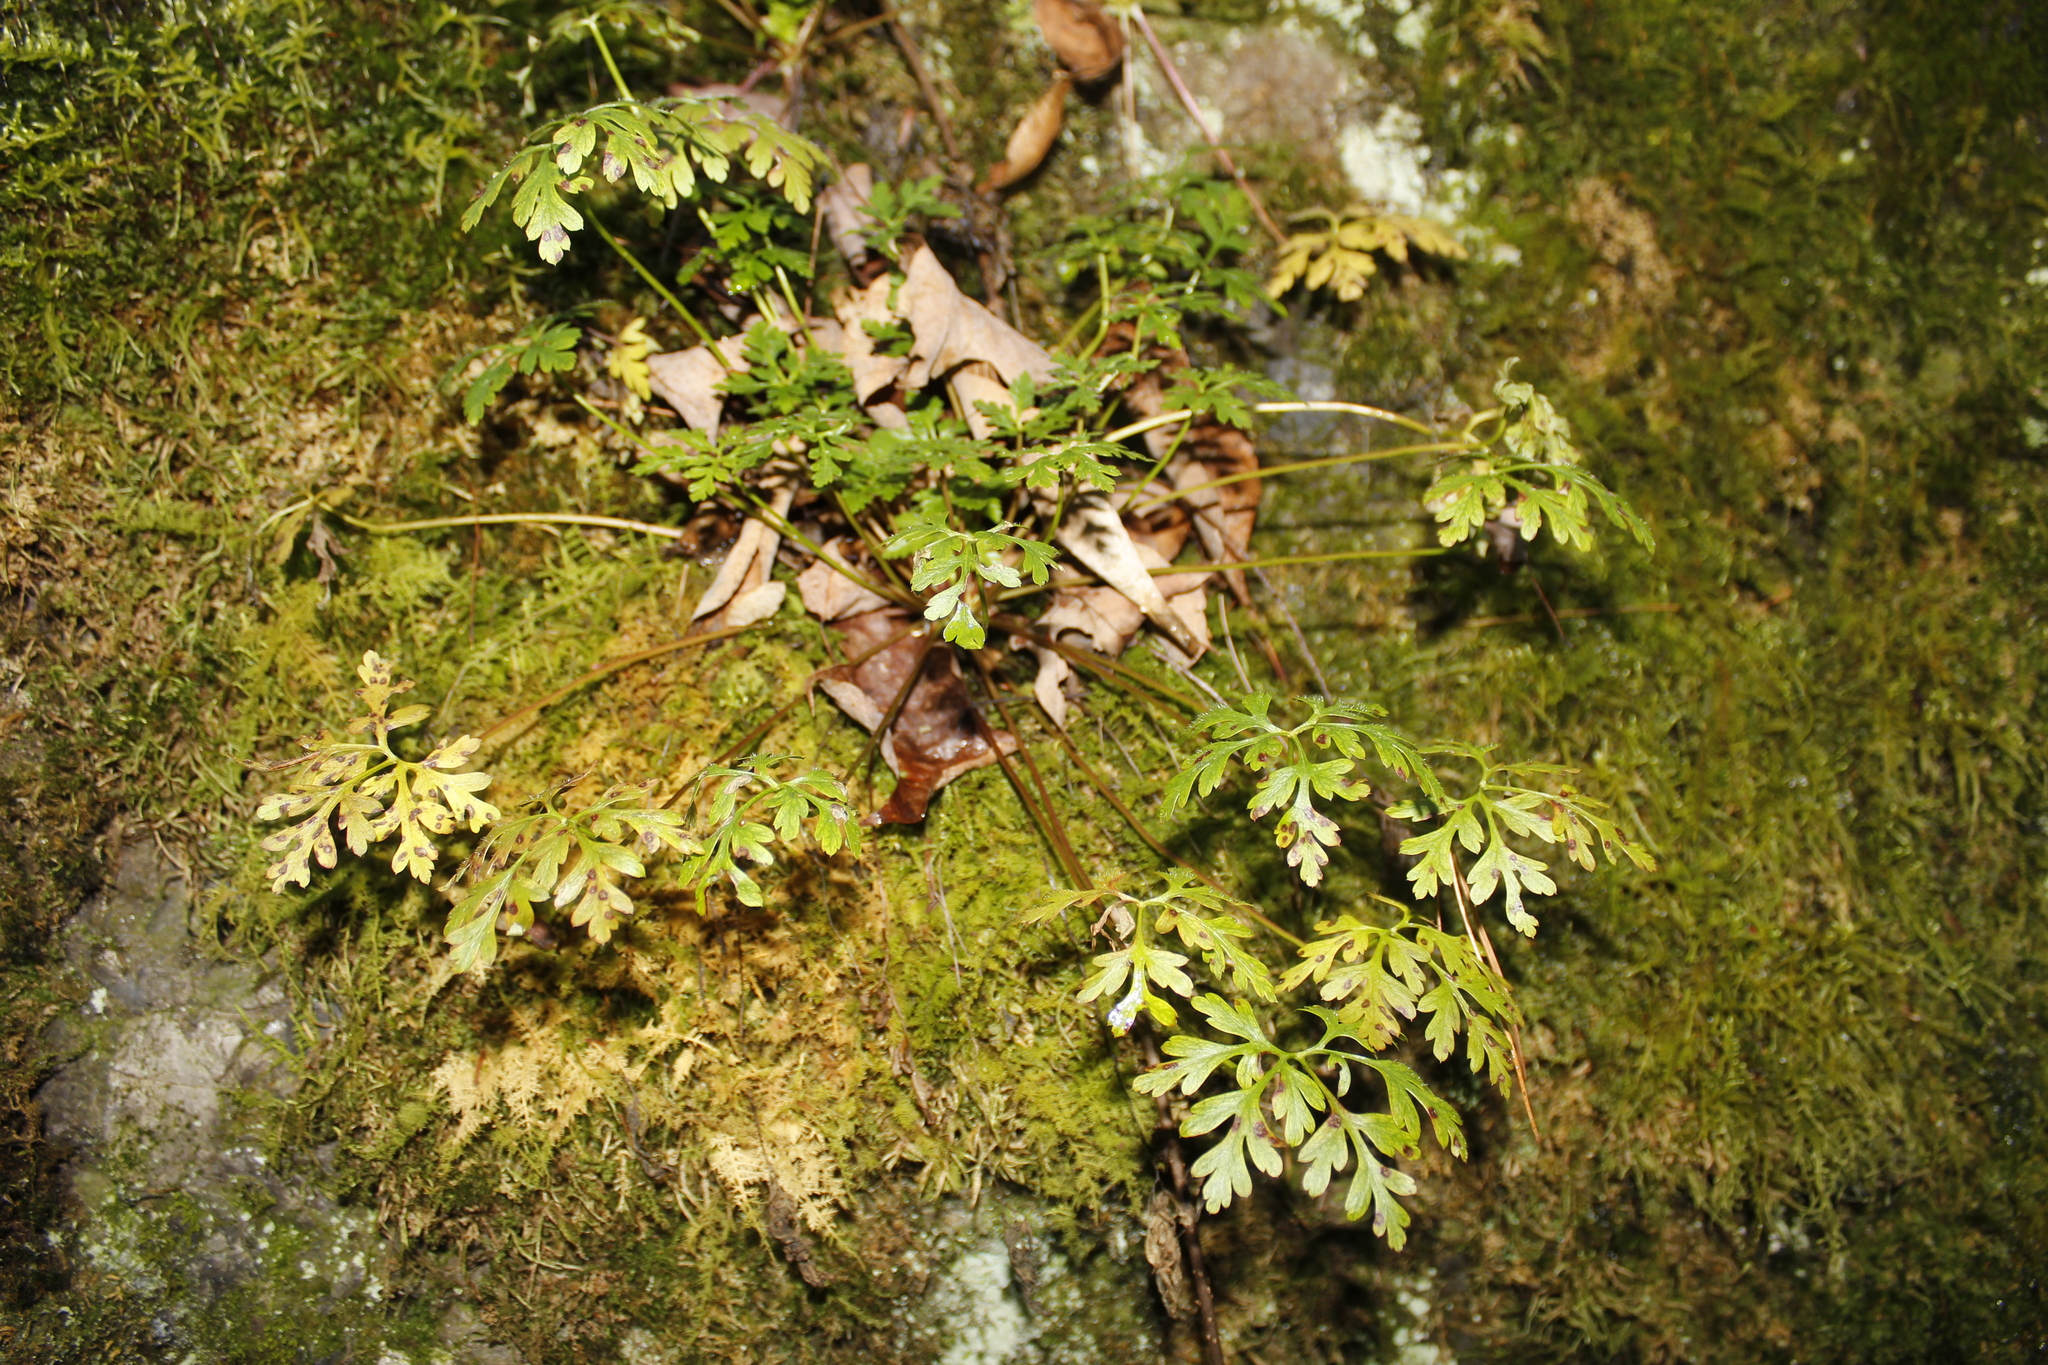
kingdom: Plantae
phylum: Tracheophyta
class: Magnoliopsida
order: Geraniales
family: Geraniaceae
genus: Geranium
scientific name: Geranium robertianum
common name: Herb-robert
